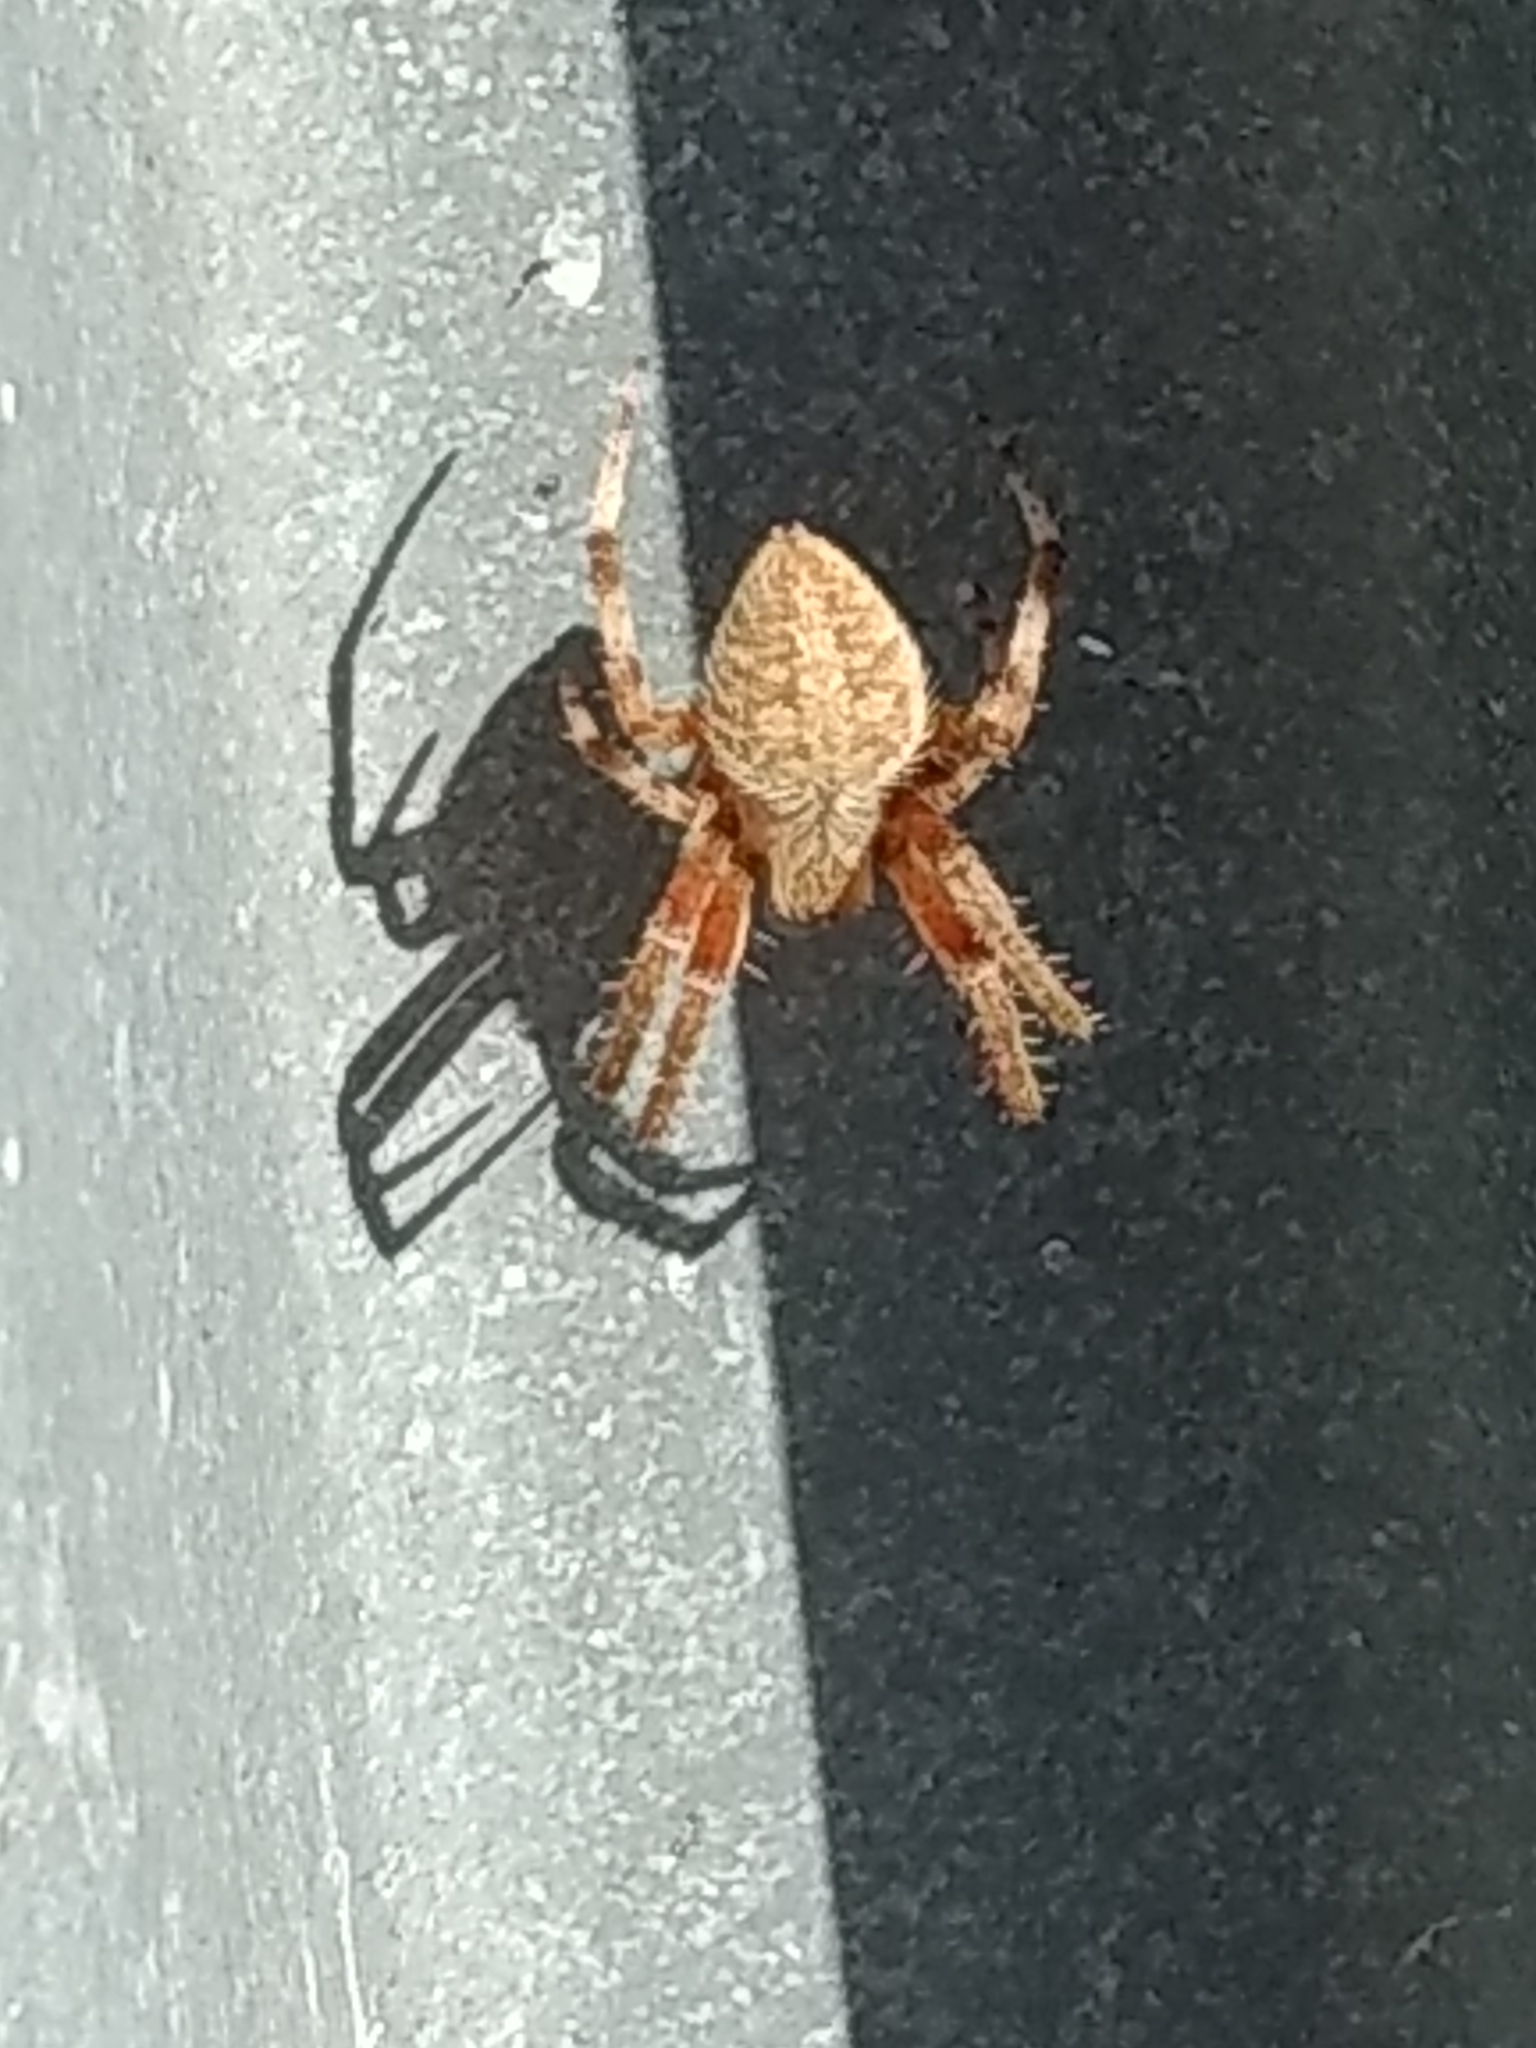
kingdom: Animalia
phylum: Arthropoda
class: Arachnida
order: Araneae
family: Araneidae
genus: Neoscona
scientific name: Neoscona crucifera
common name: Spotted orbweaver
